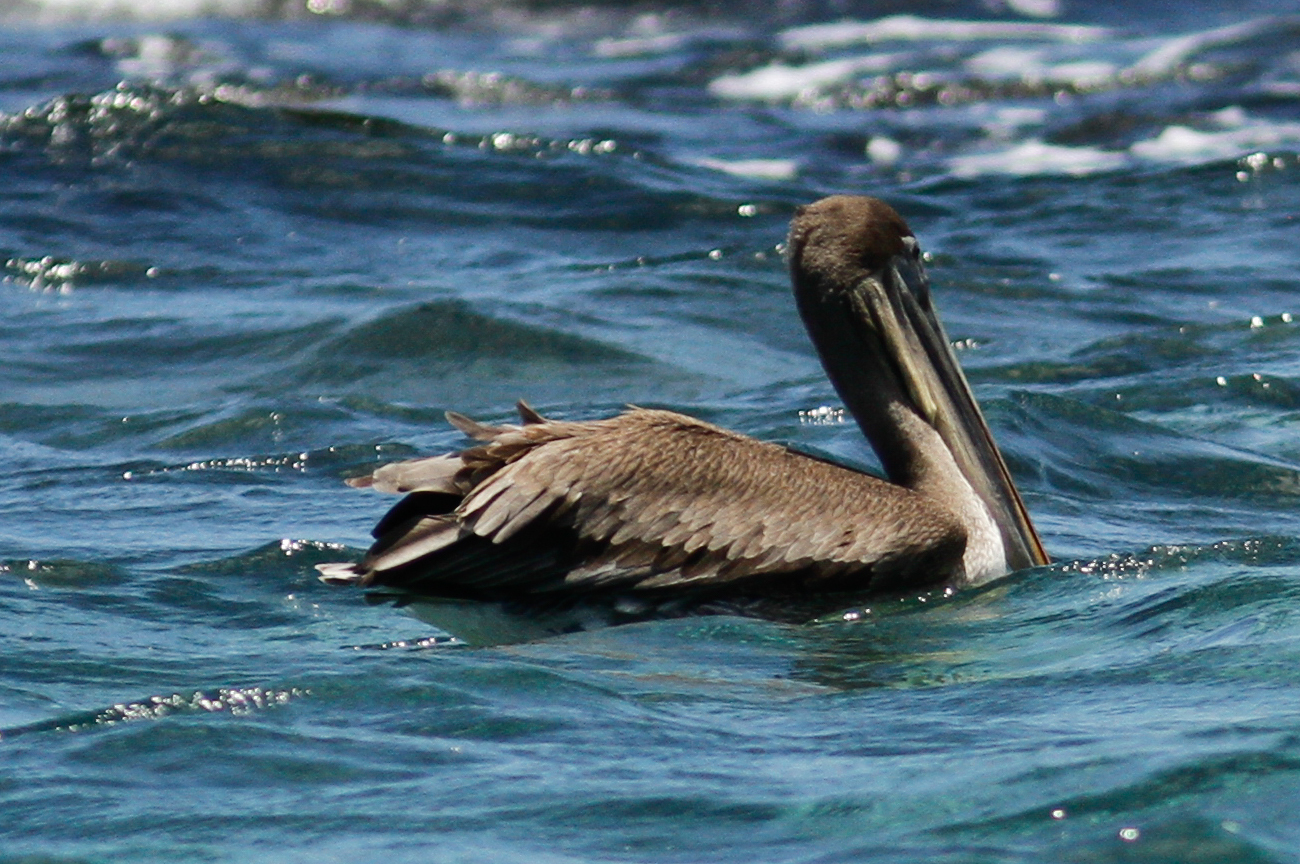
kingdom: Animalia
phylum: Chordata
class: Aves
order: Pelecaniformes
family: Pelecanidae
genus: Pelecanus
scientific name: Pelecanus occidentalis
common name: Brown pelican
